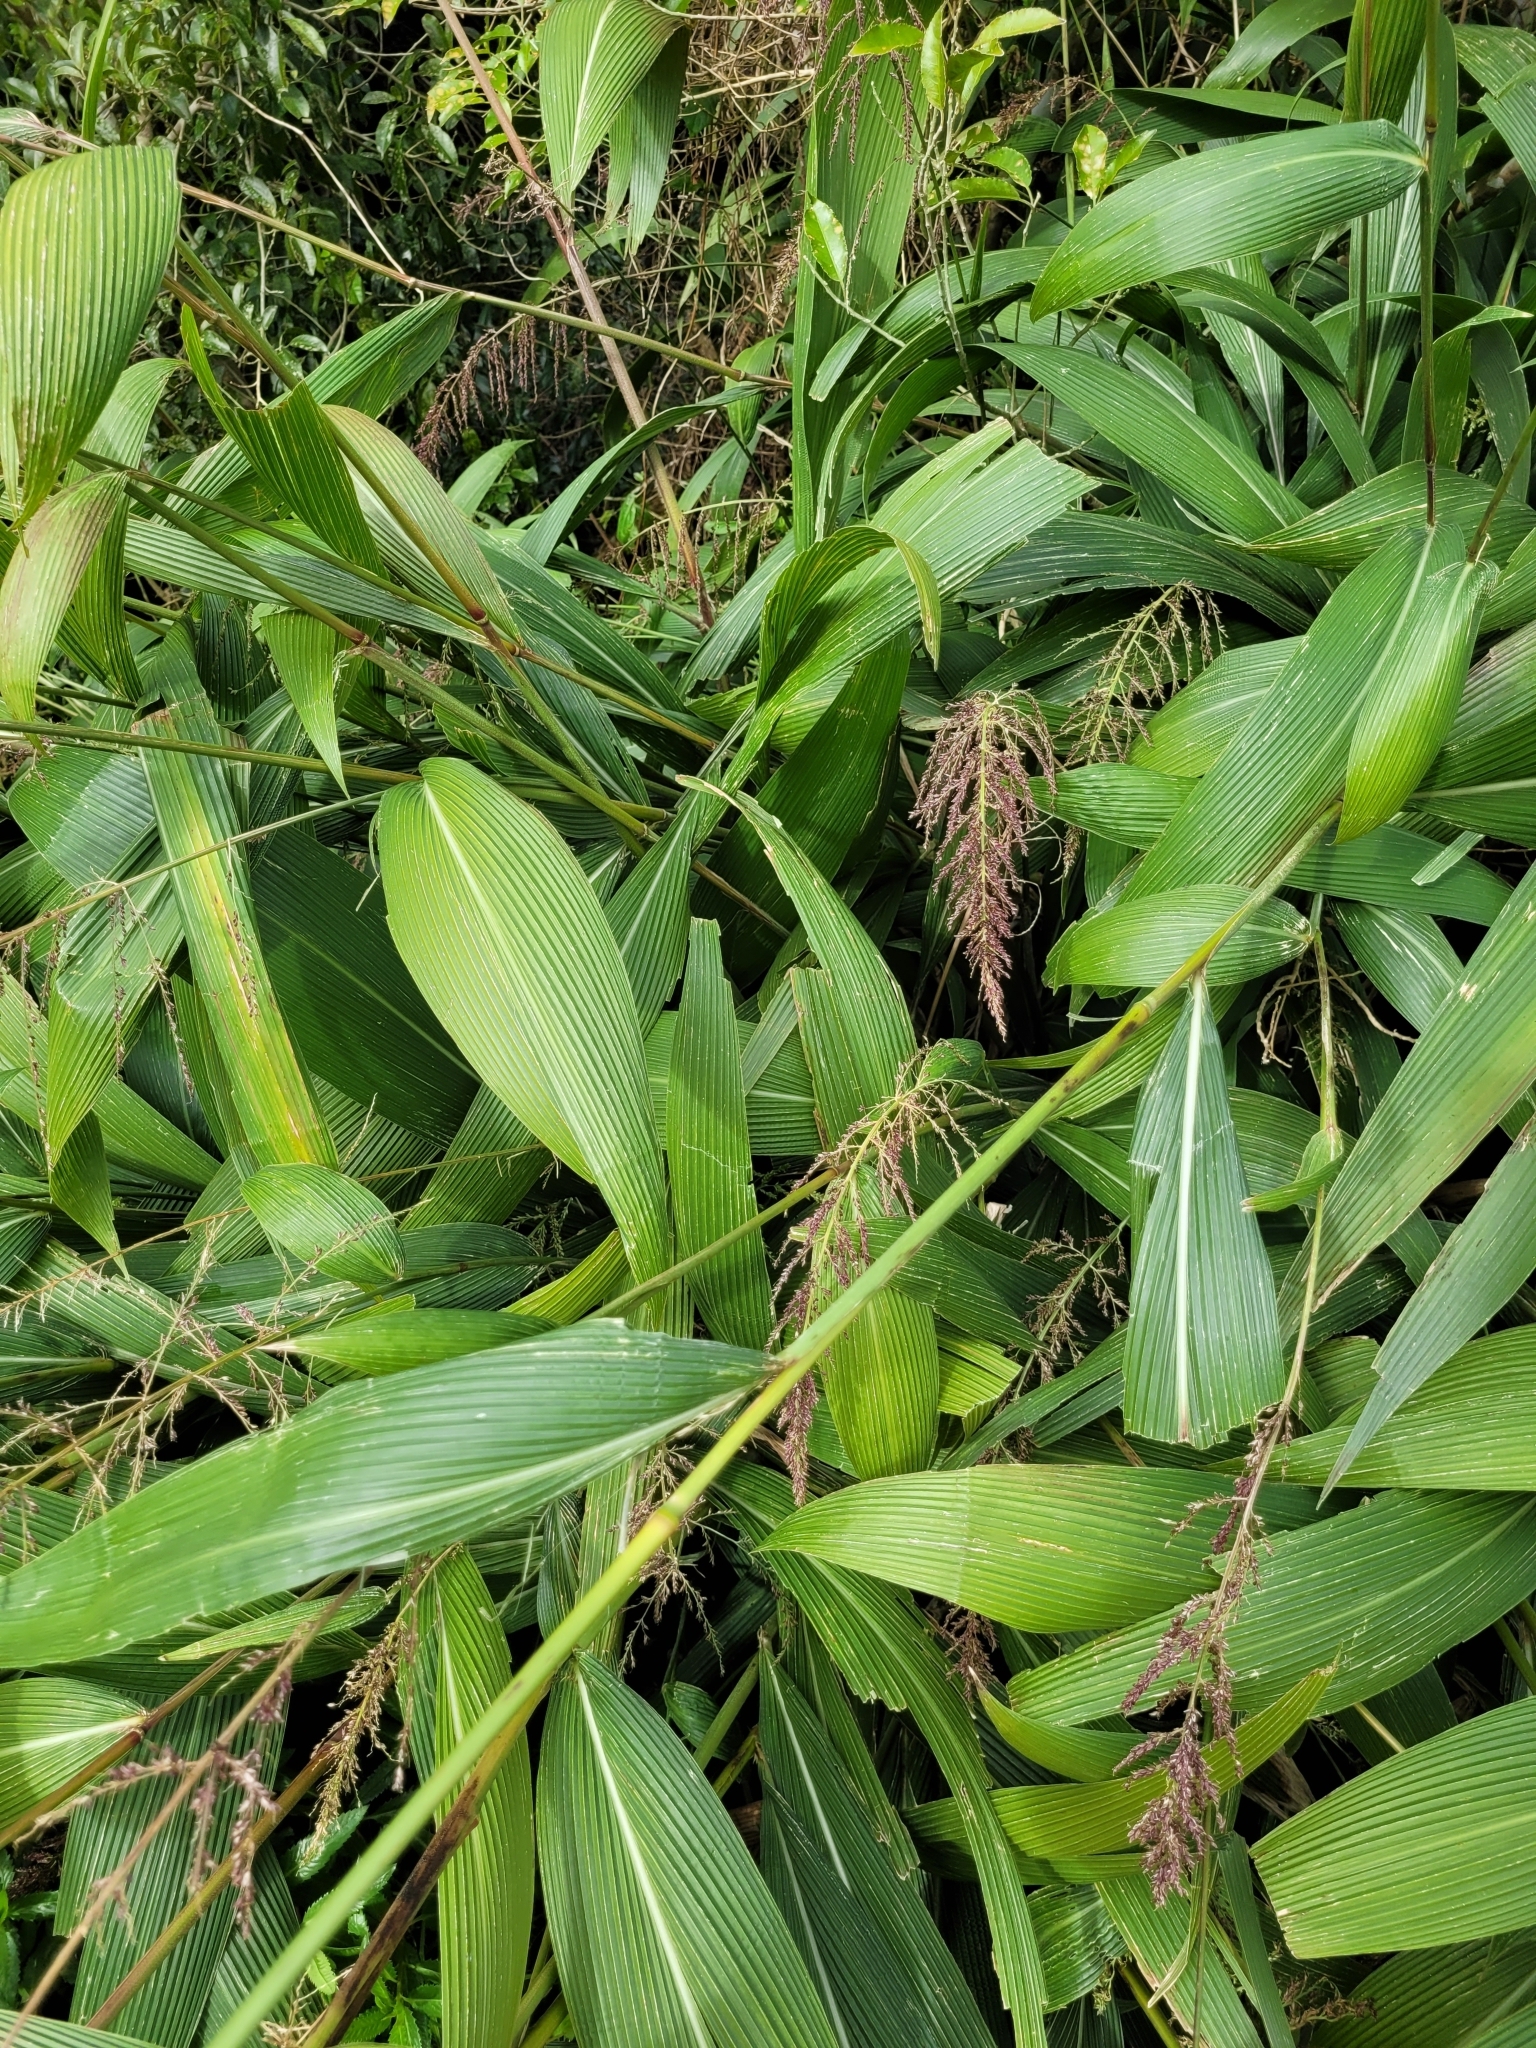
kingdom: Plantae
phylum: Tracheophyta
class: Liliopsida
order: Poales
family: Poaceae
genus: Setaria
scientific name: Setaria palmifolia
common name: Broadleaved bristlegrass
